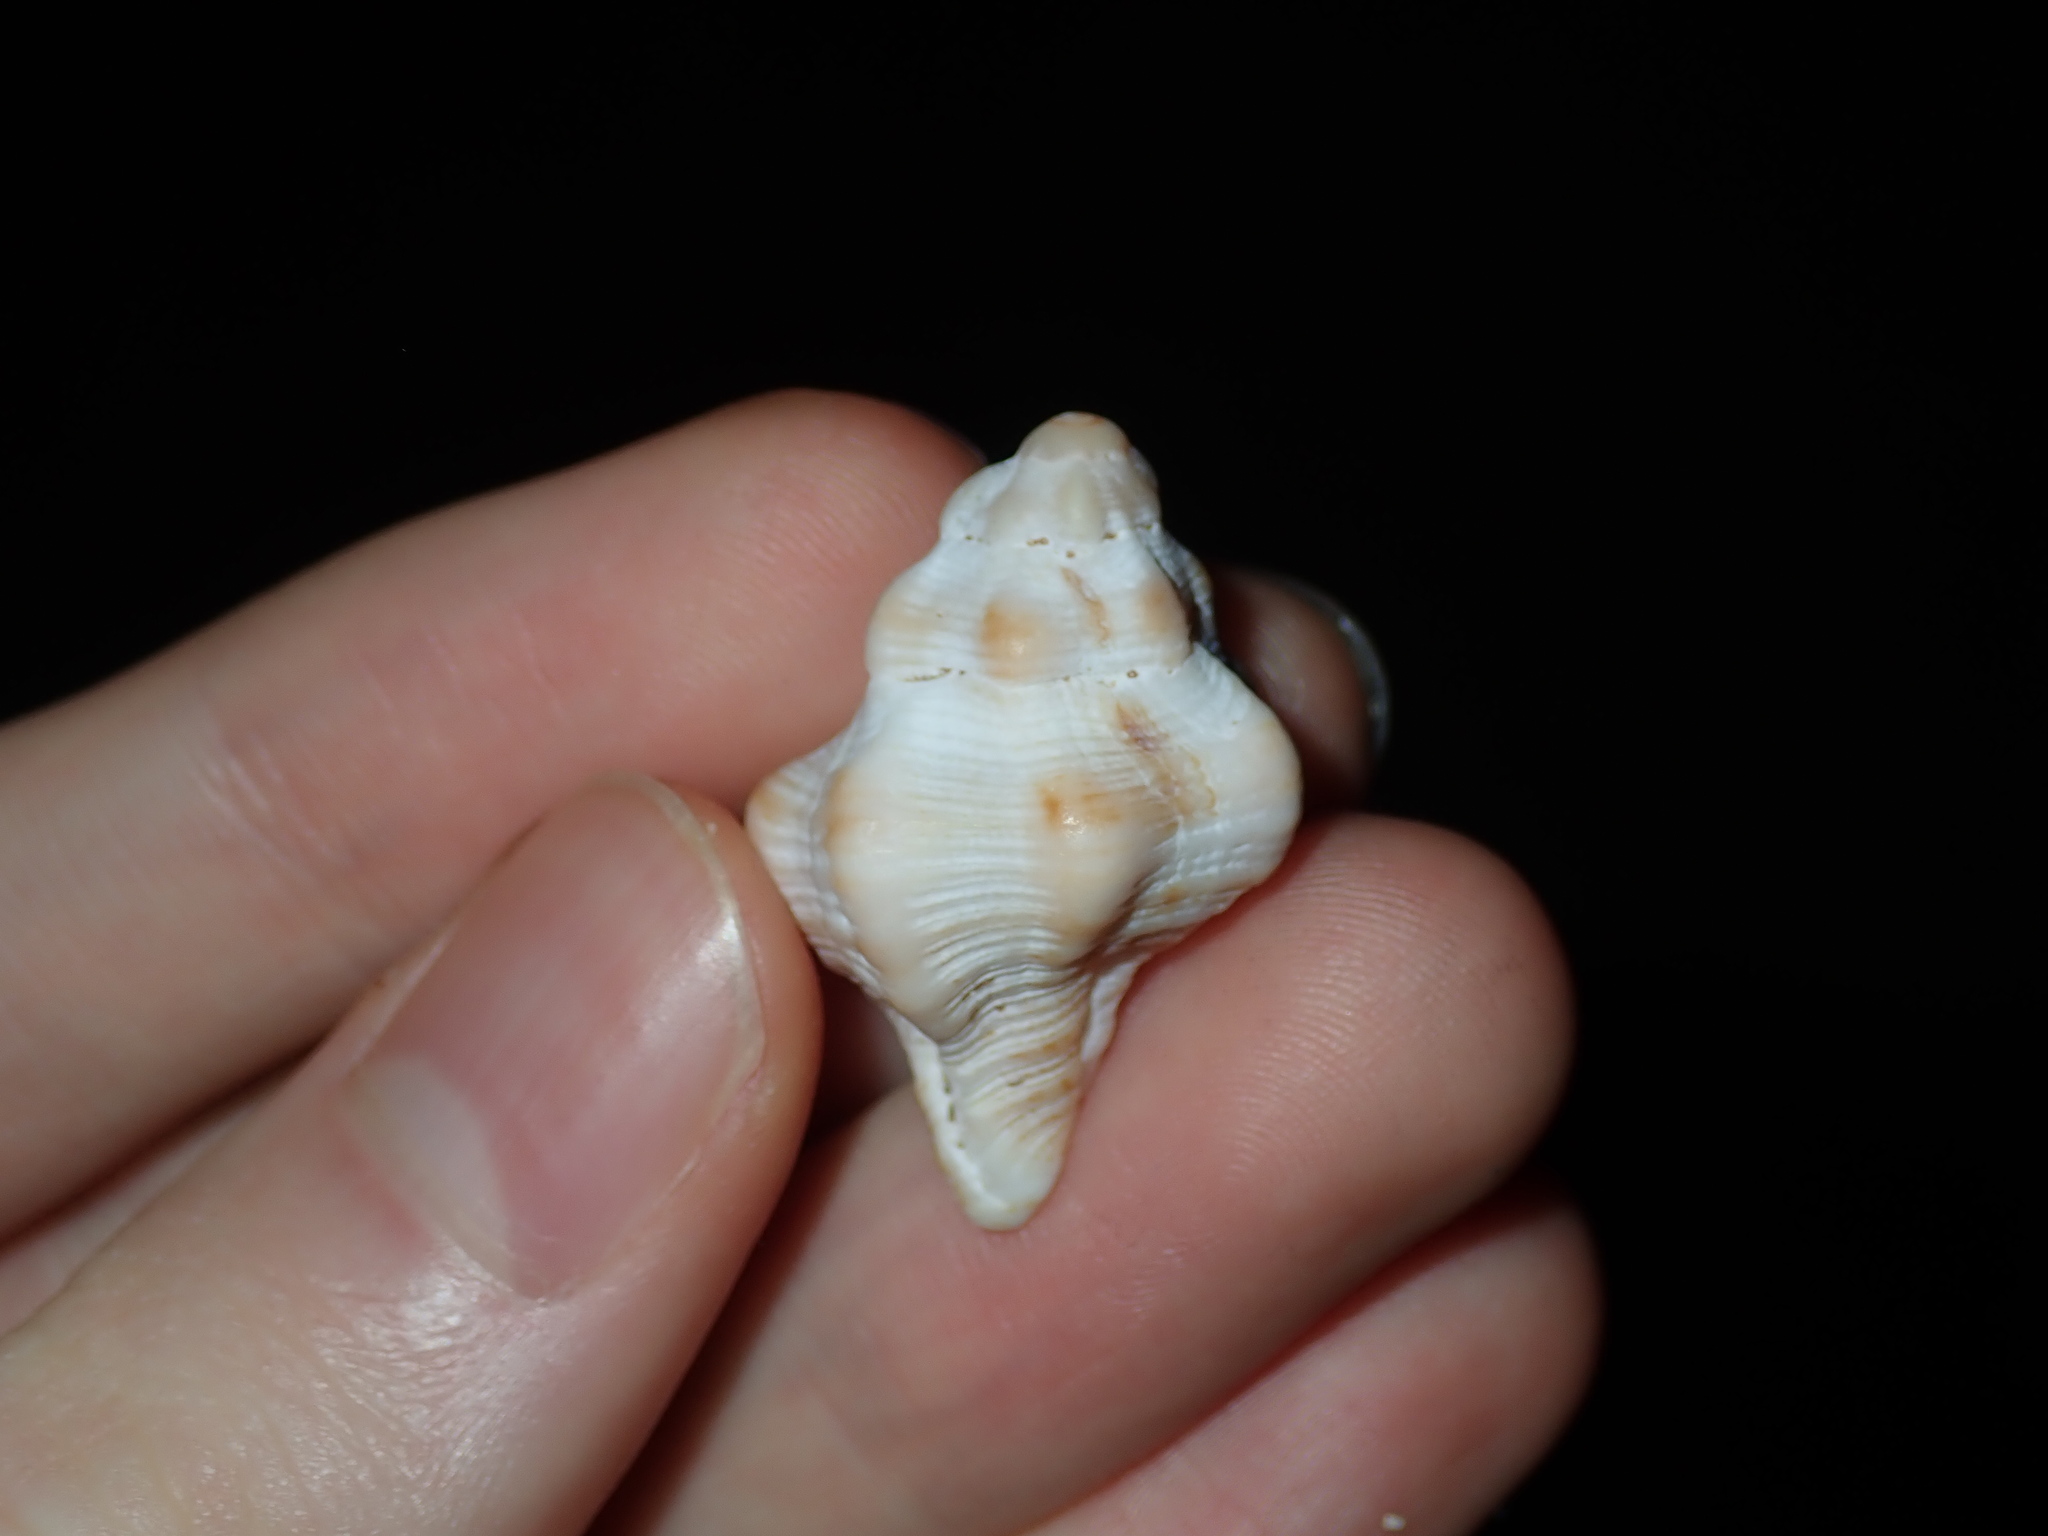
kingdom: Animalia
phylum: Mollusca
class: Gastropoda
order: Neogastropoda
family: Muricidae
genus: Chicoreus
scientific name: Chicoreus denudatus
